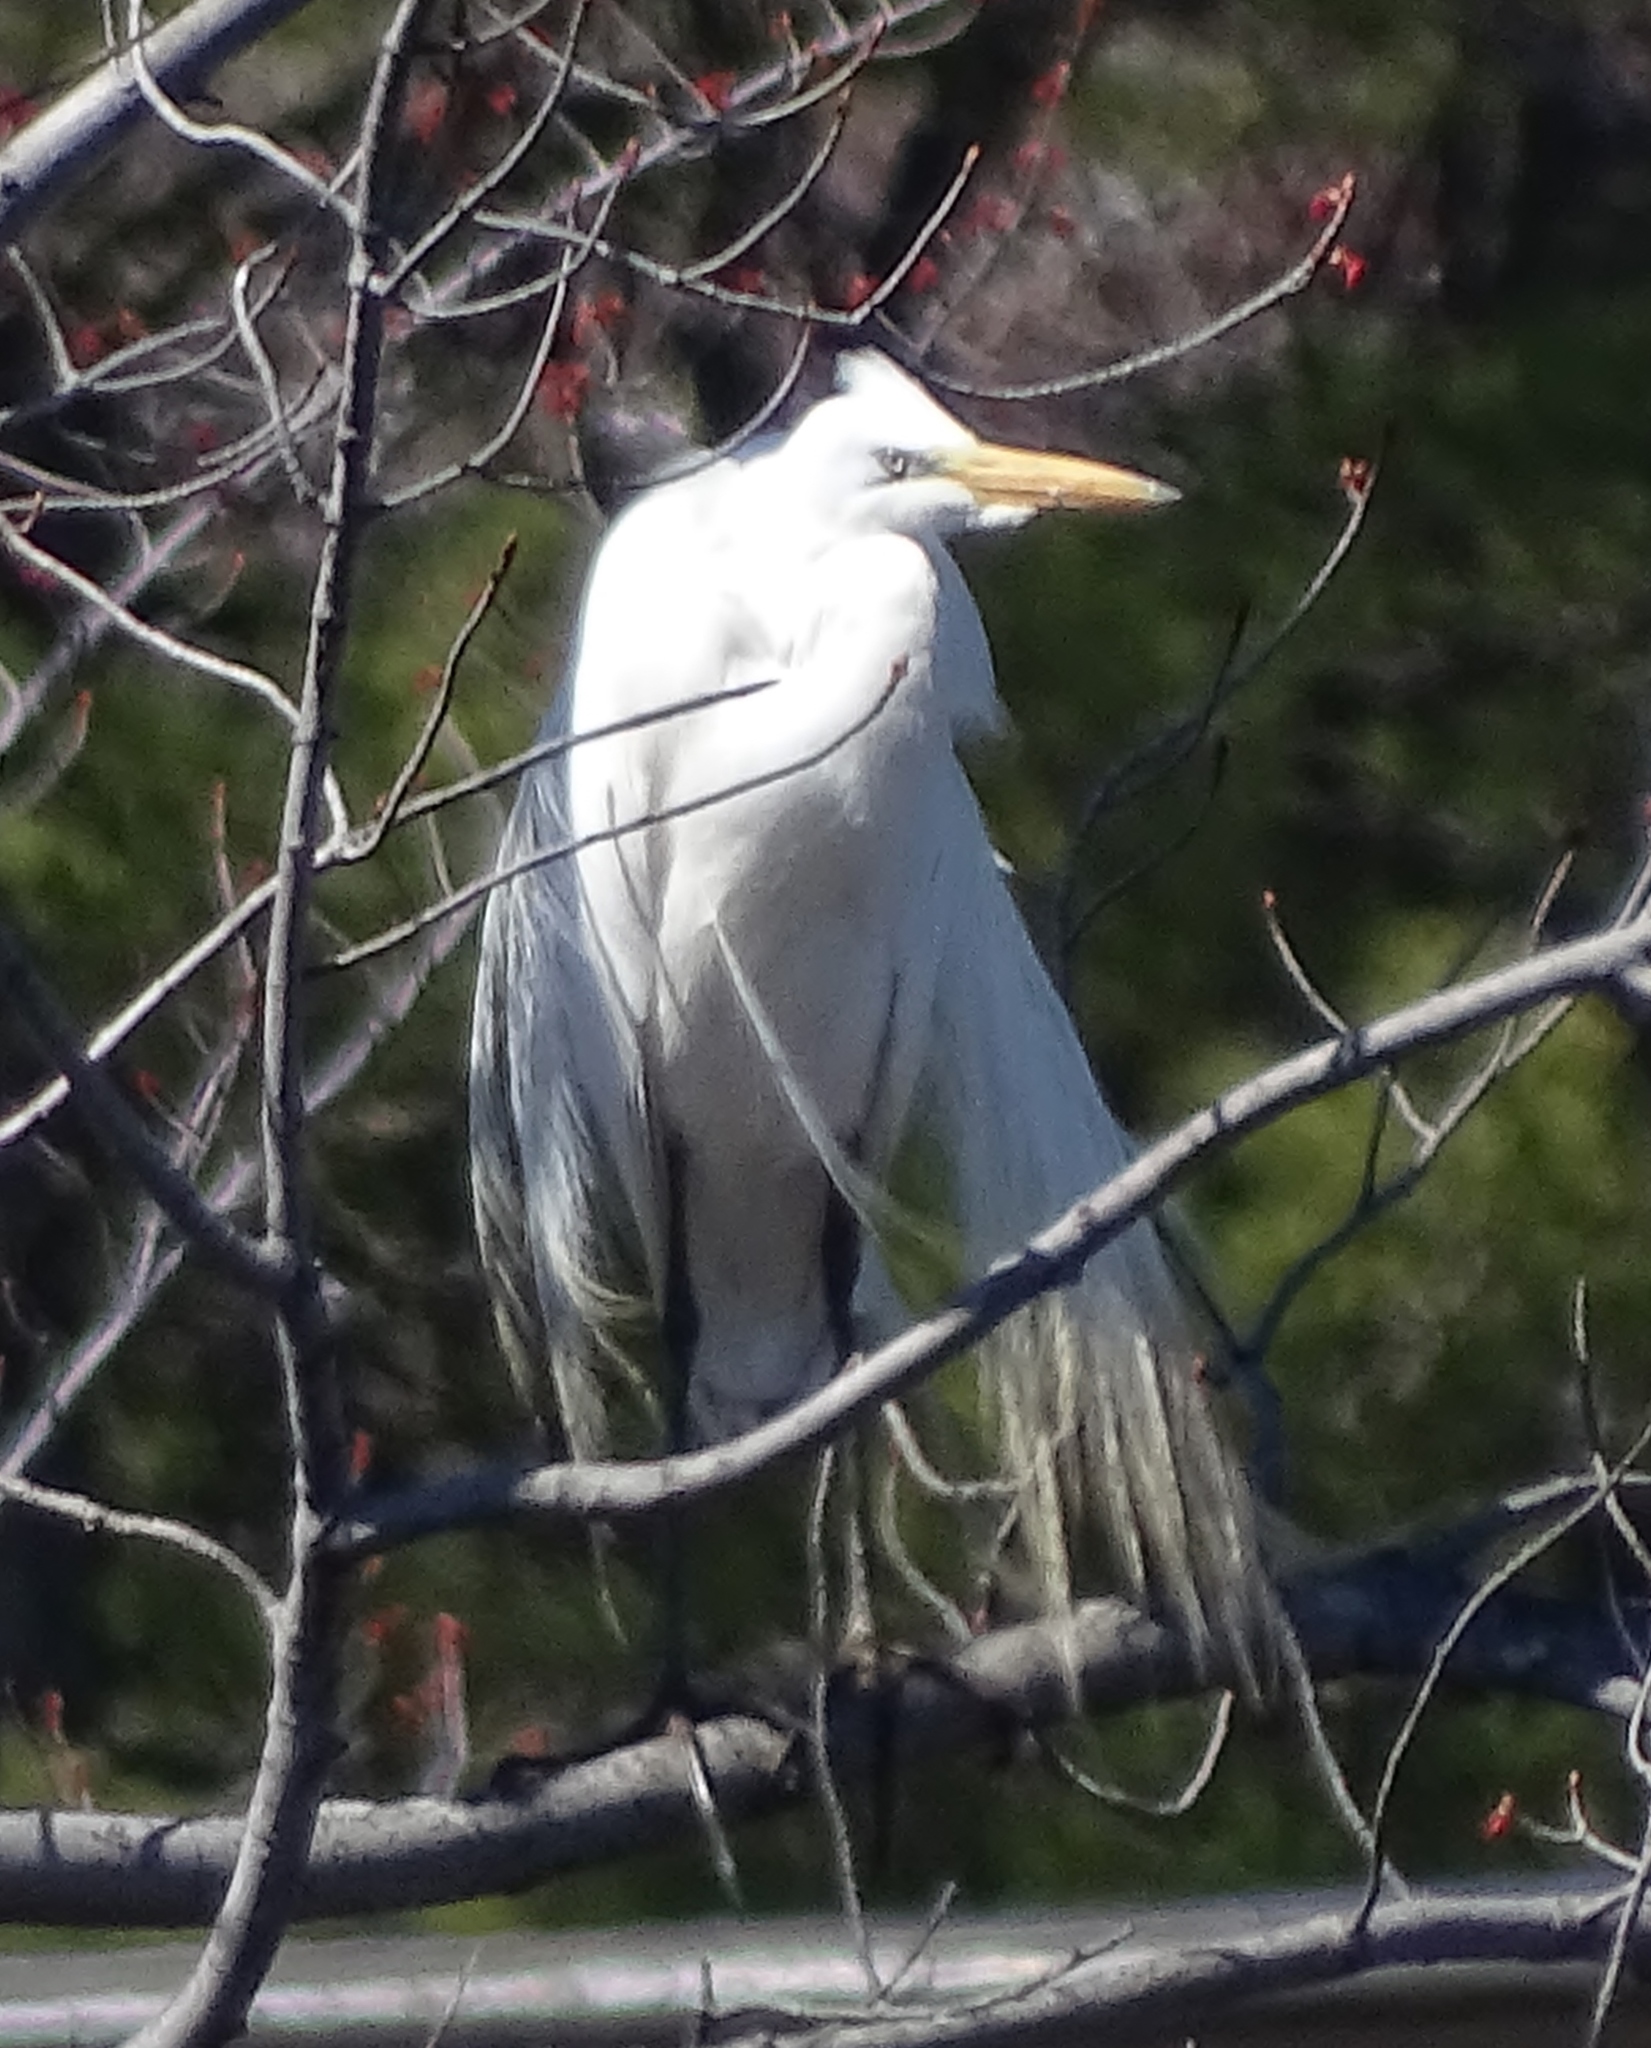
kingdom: Animalia
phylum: Chordata
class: Aves
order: Pelecaniformes
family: Ardeidae
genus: Ardea
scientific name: Ardea alba
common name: Great egret
